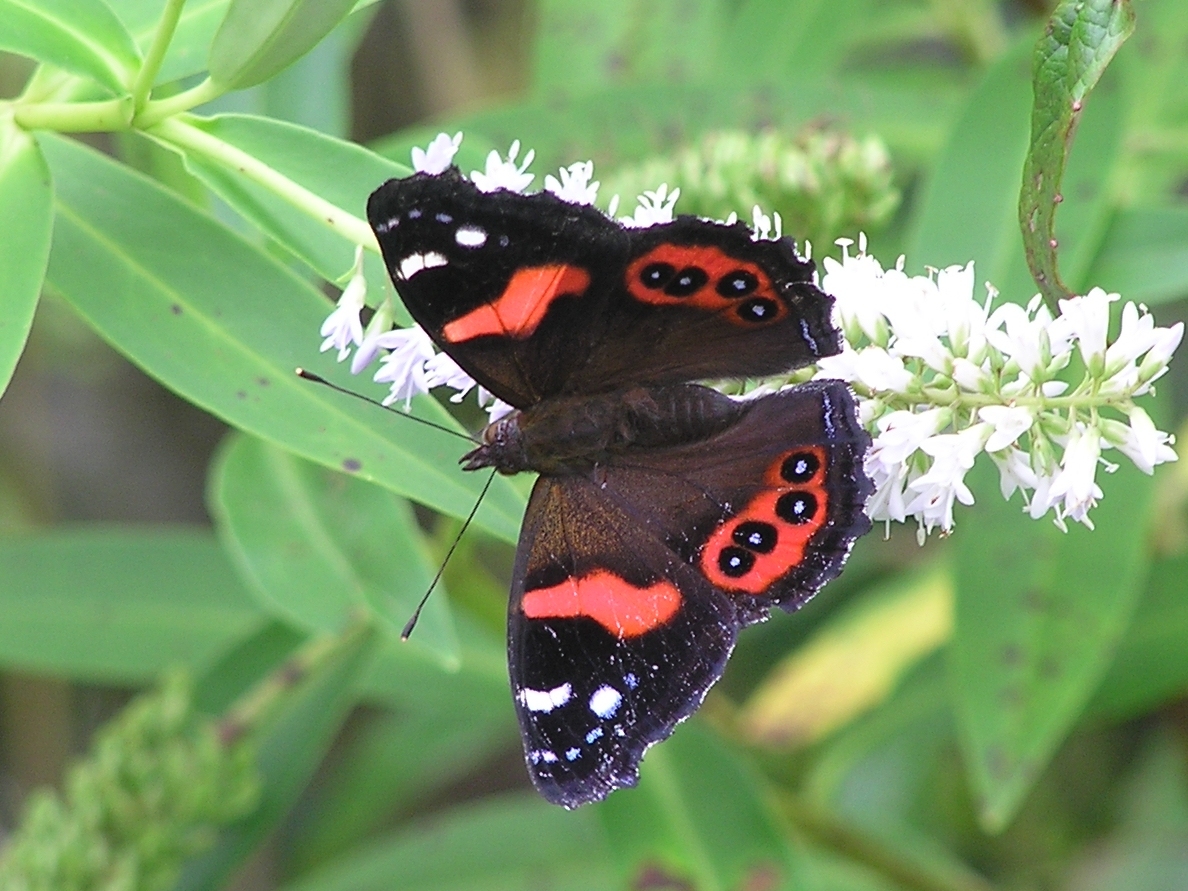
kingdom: Animalia
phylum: Arthropoda
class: Insecta
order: Lepidoptera
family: Nymphalidae
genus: Vanessa
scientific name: Vanessa gonerilla
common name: New zealand red admiral
